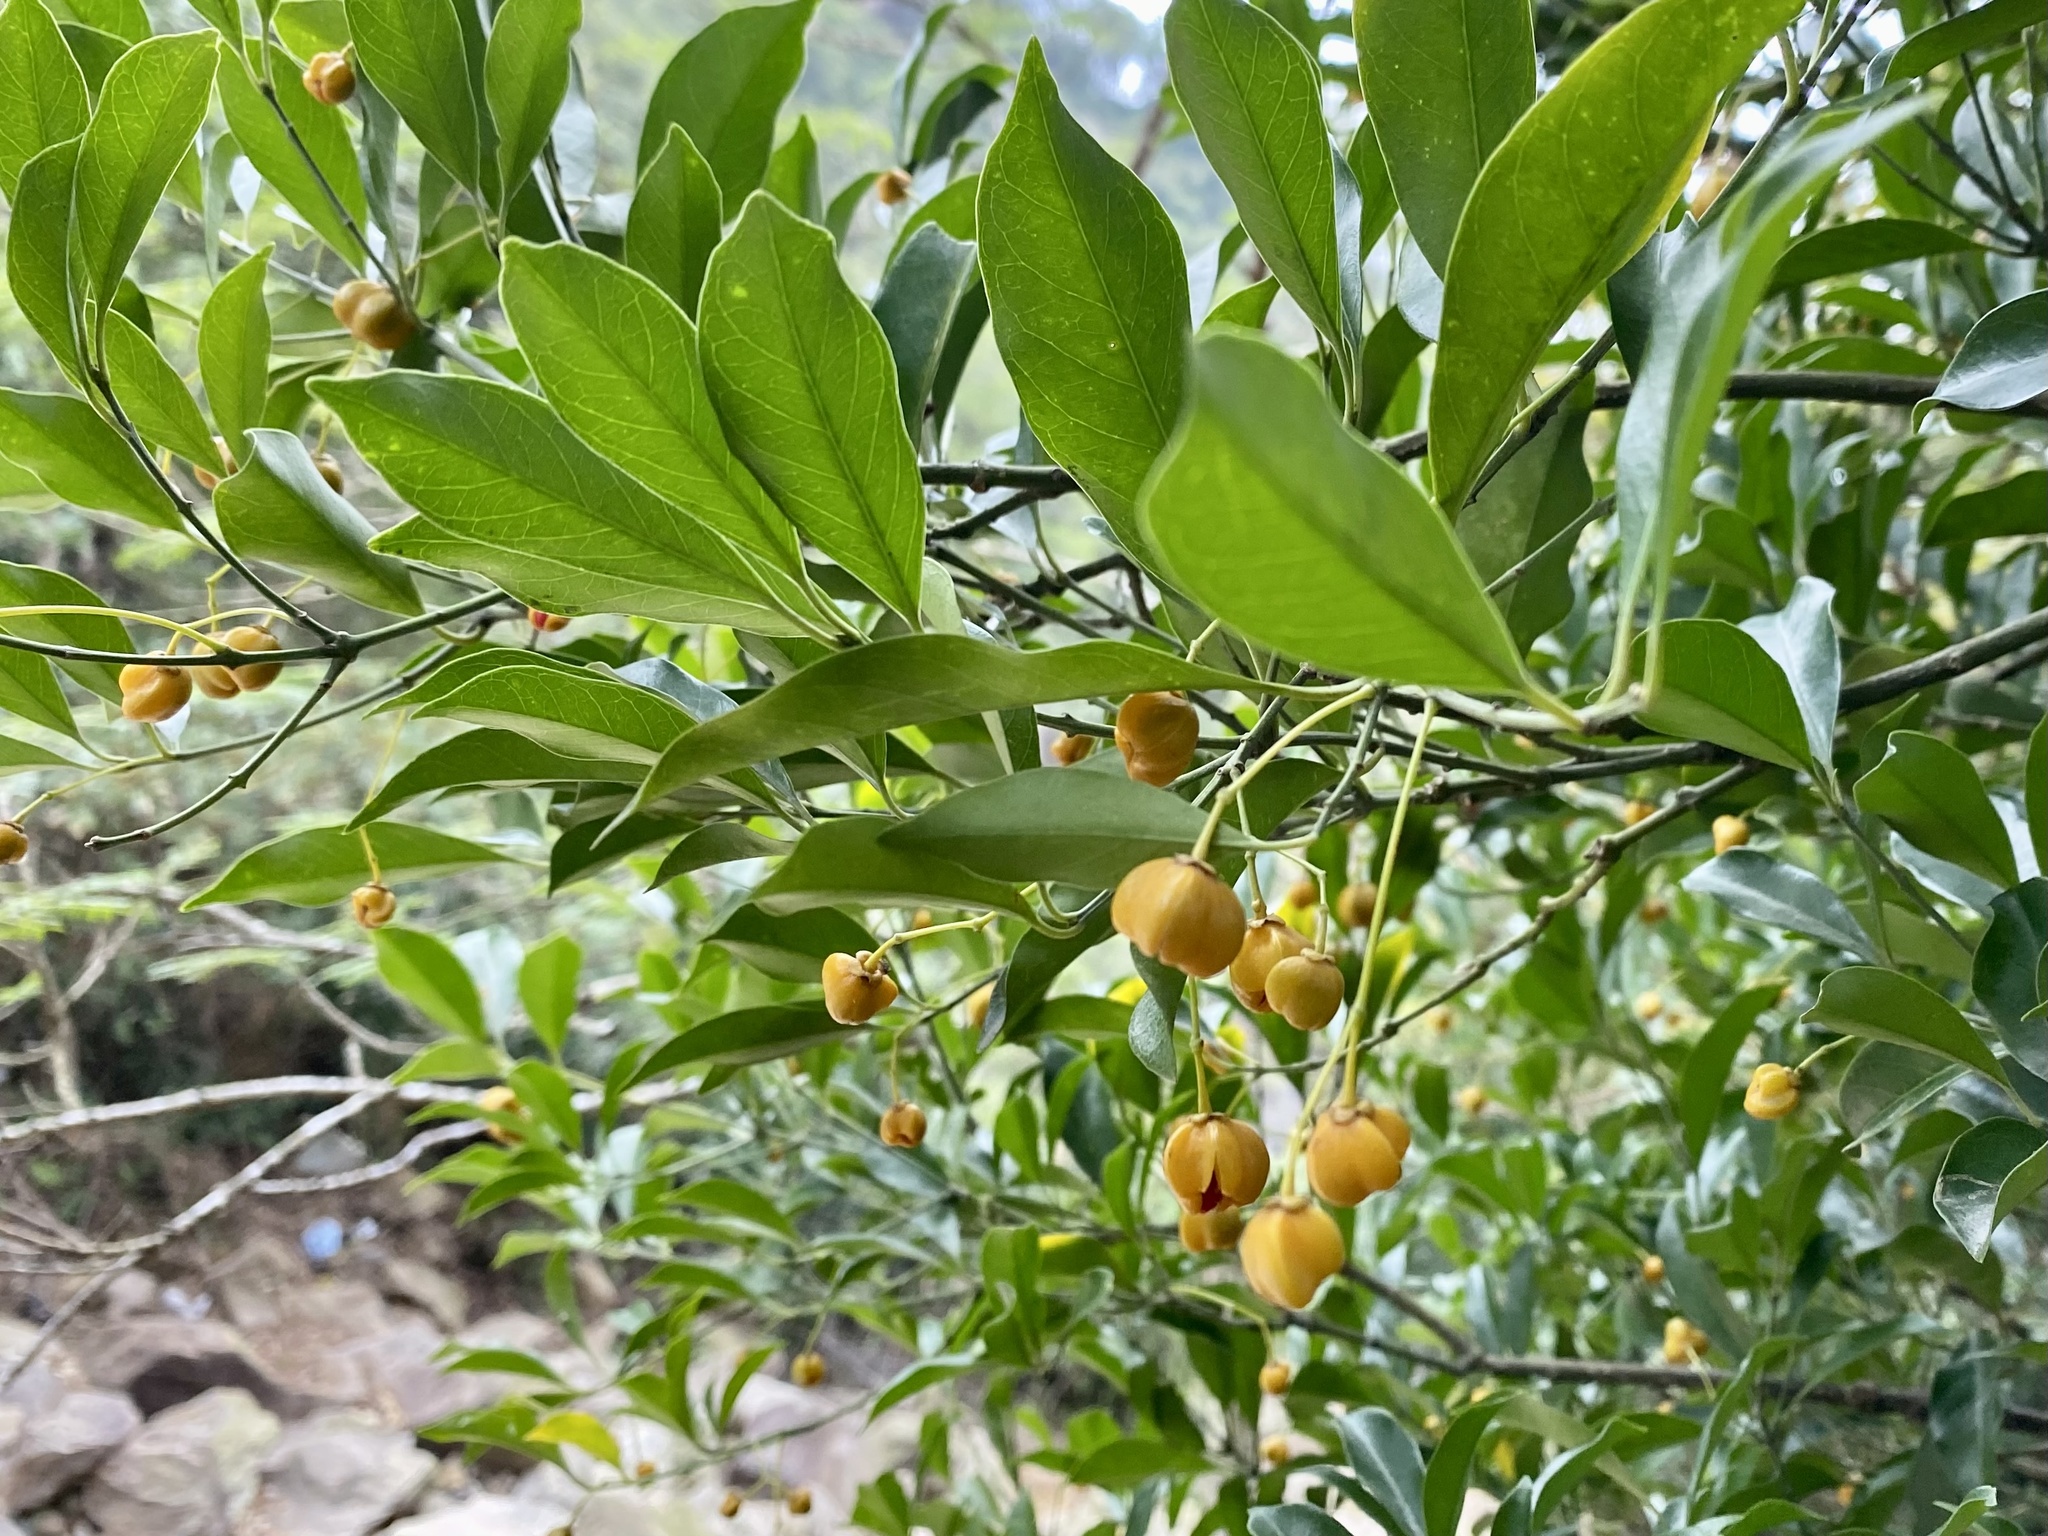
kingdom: Plantae
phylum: Tracheophyta
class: Magnoliopsida
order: Celastrales
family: Celastraceae
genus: Euonymus
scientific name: Euonymus nitidus
